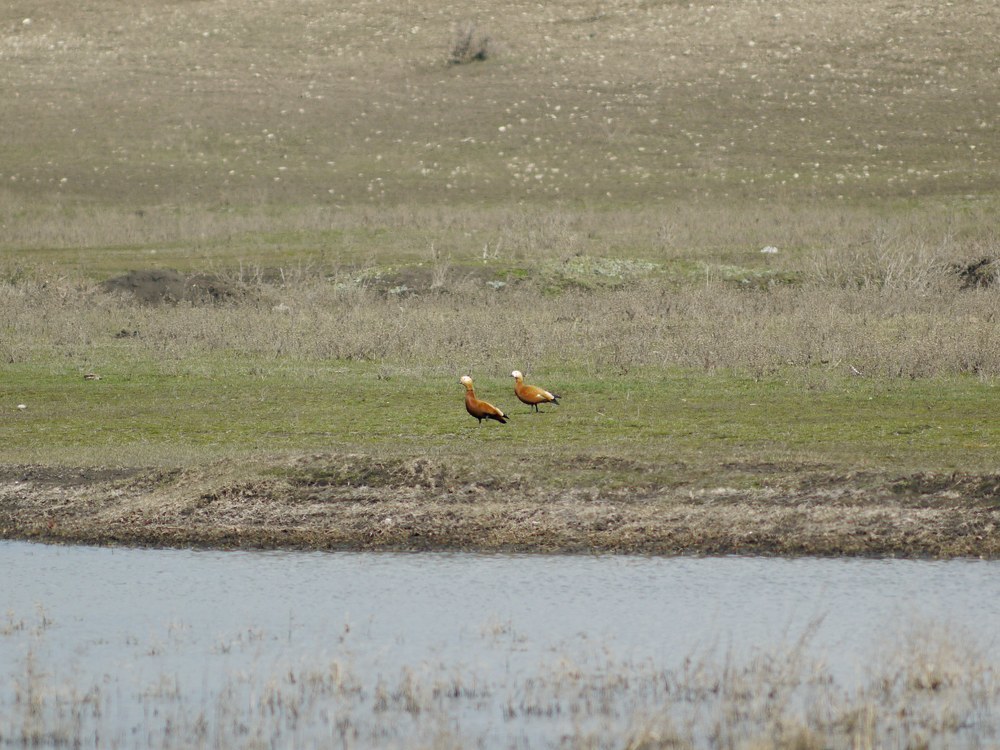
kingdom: Animalia
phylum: Chordata
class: Aves
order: Anseriformes
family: Anatidae
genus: Tadorna
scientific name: Tadorna ferruginea
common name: Ruddy shelduck
